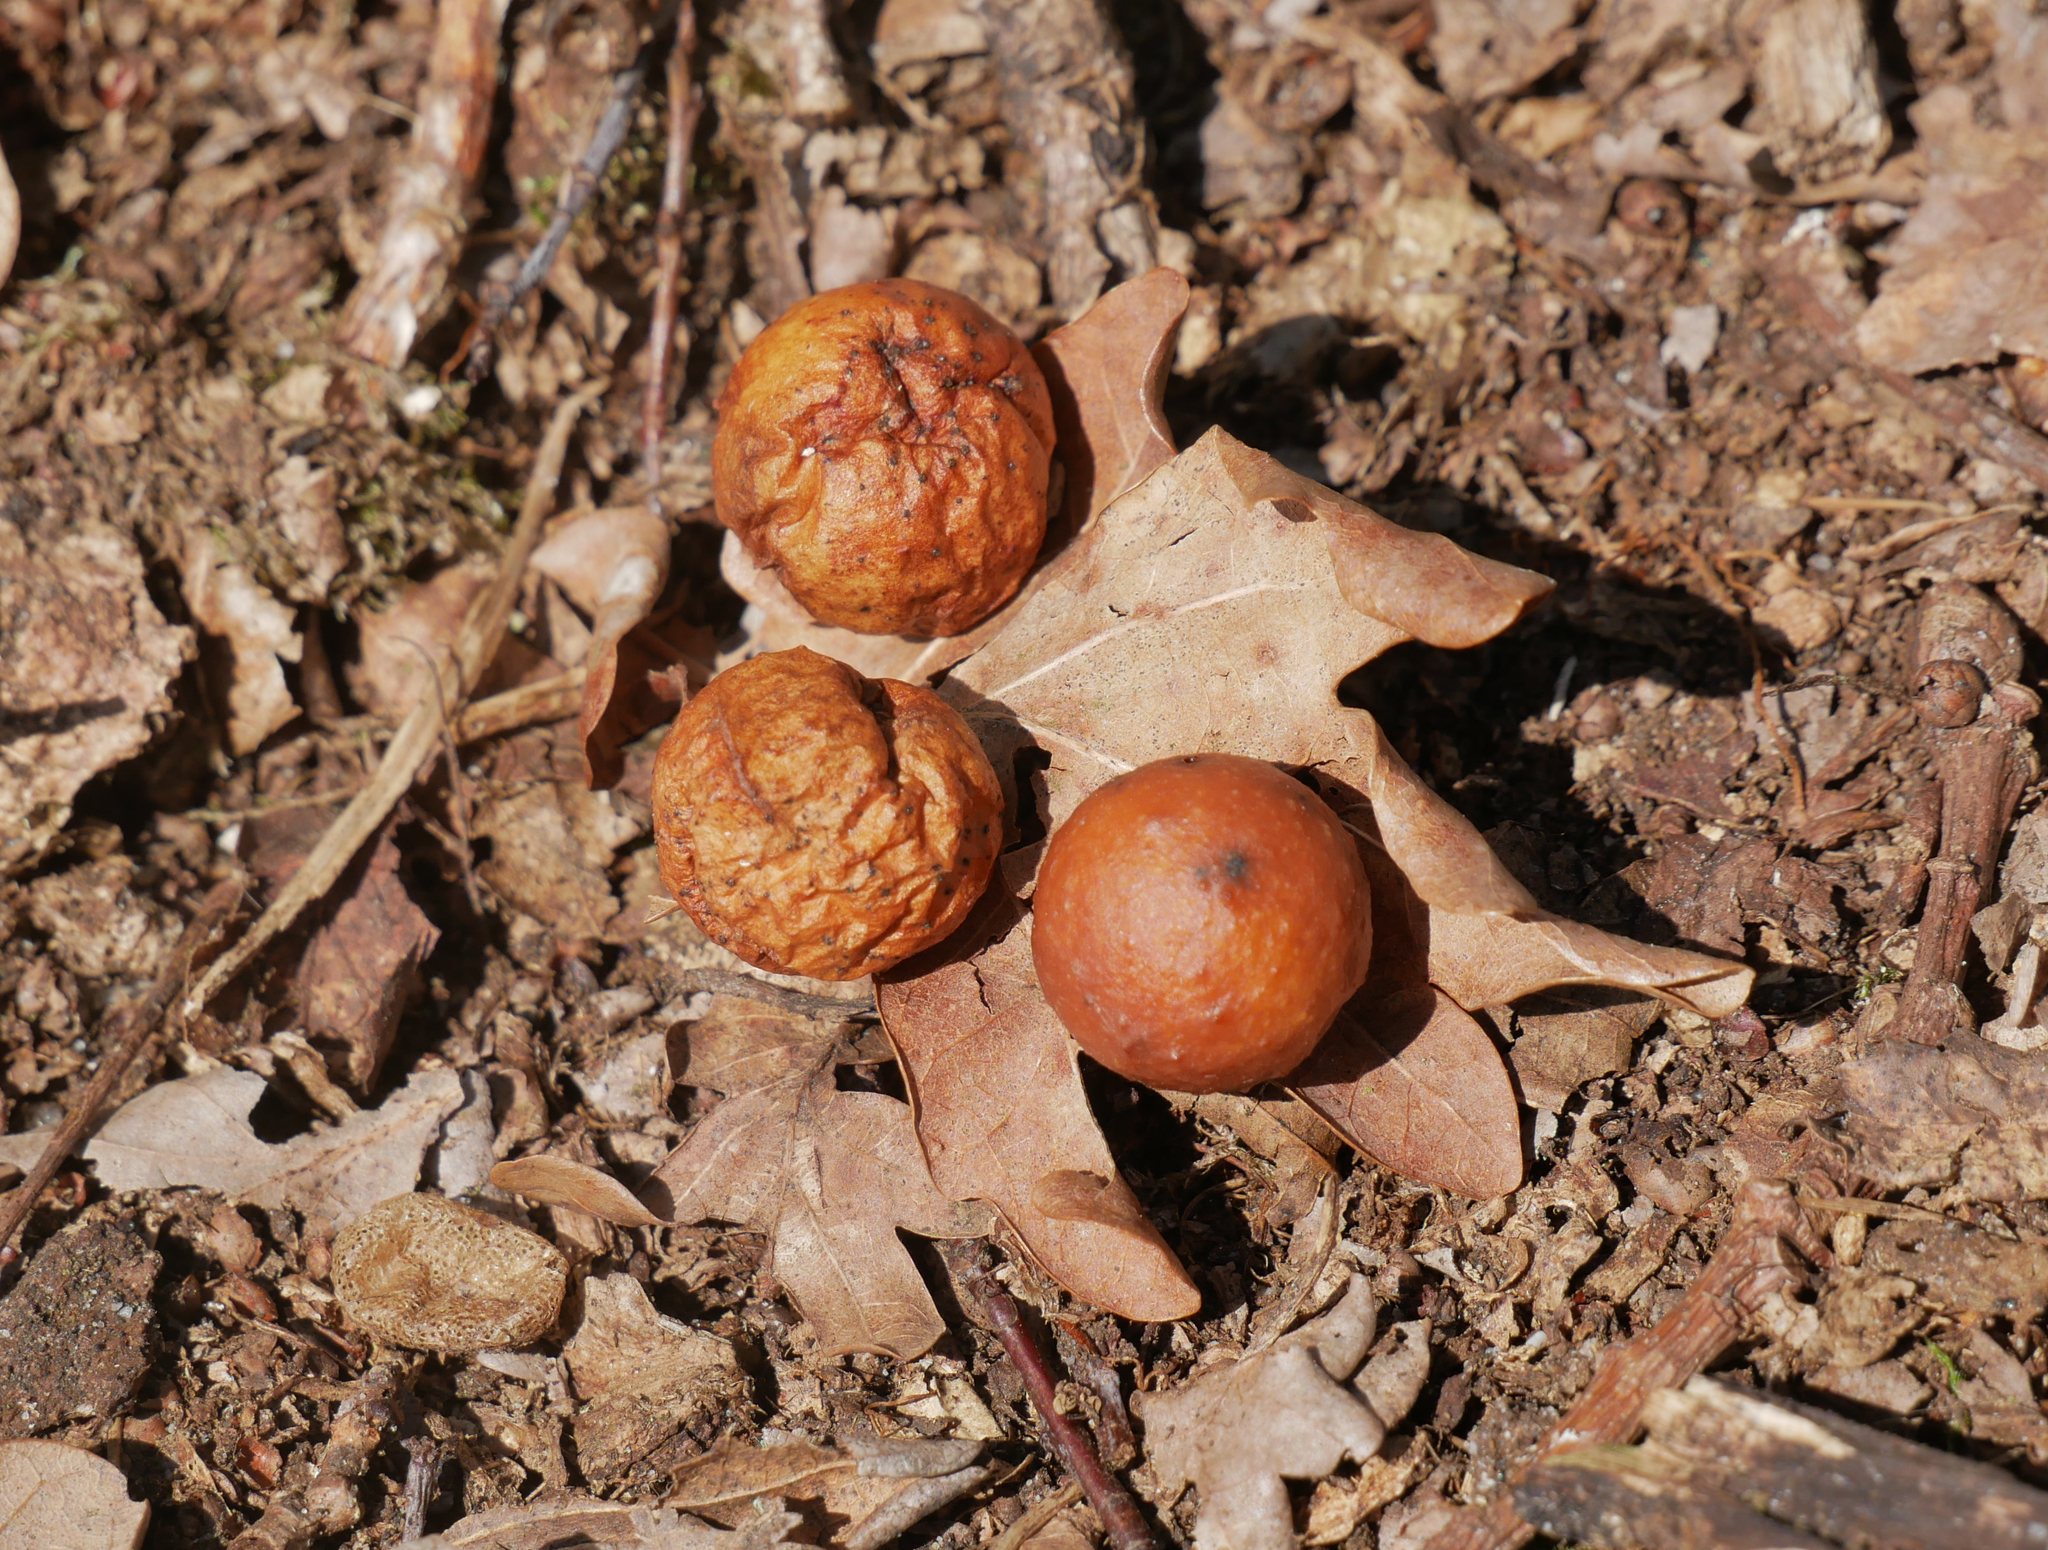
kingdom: Animalia
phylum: Arthropoda
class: Insecta
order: Hymenoptera
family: Cynipidae
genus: Cynips
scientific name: Cynips quercusfolii
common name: Cherry gall
